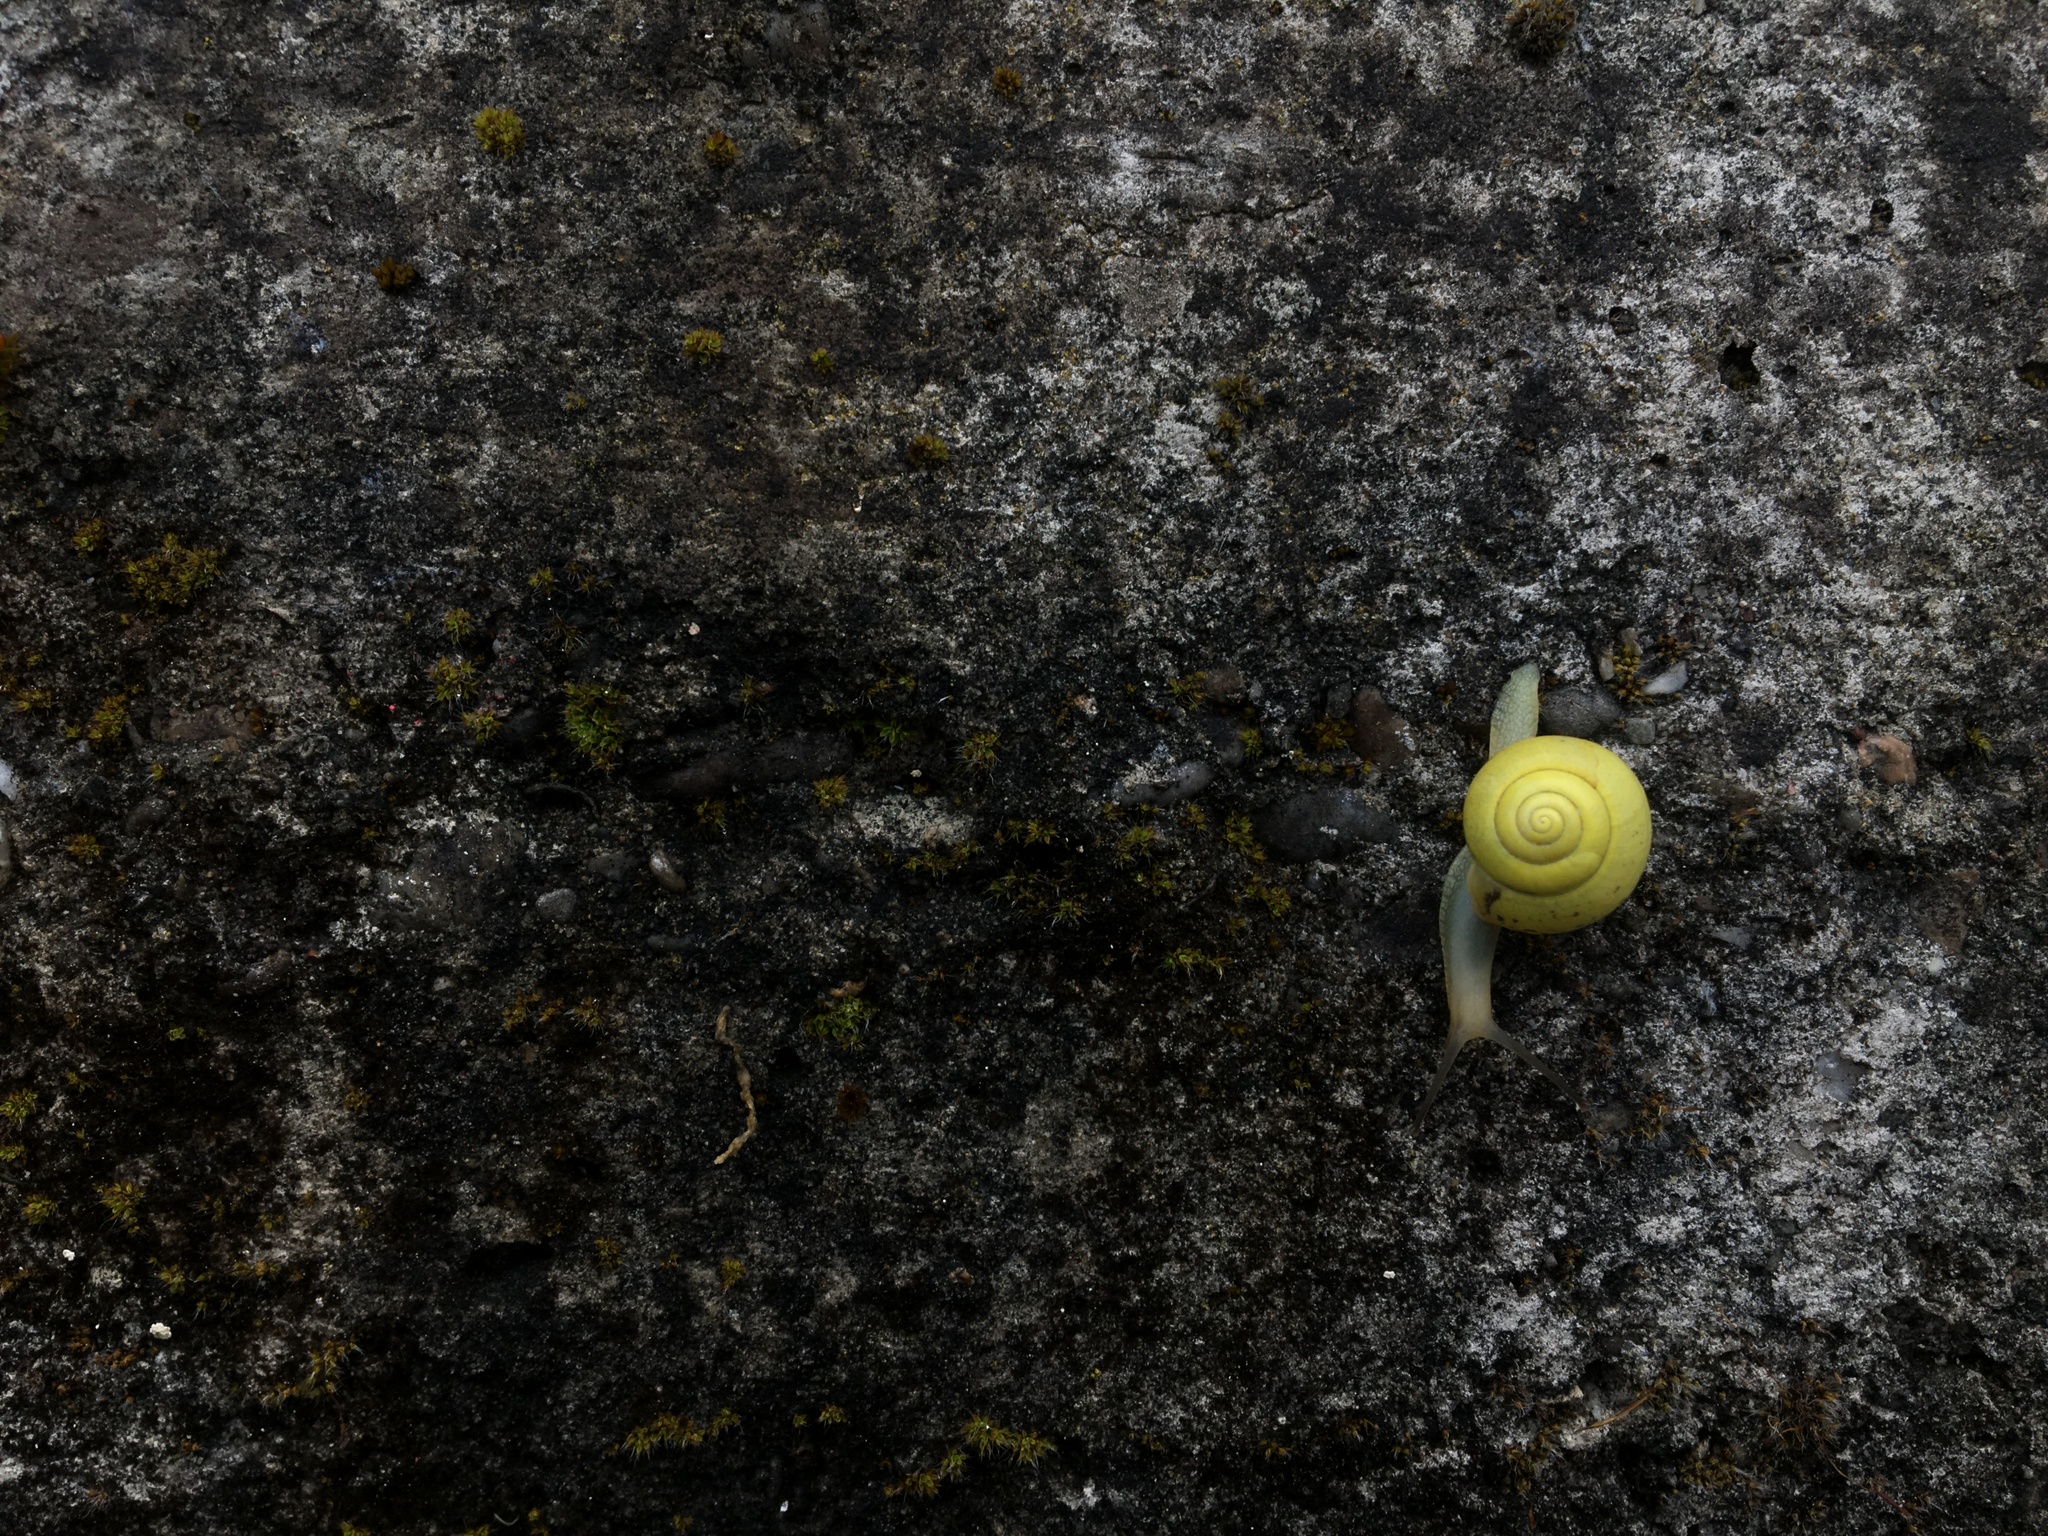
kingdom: Animalia
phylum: Mollusca
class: Gastropoda
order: Stylommatophora
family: Camaenidae
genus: Fruticicola
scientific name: Fruticicola fruticum
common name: Bush snail
